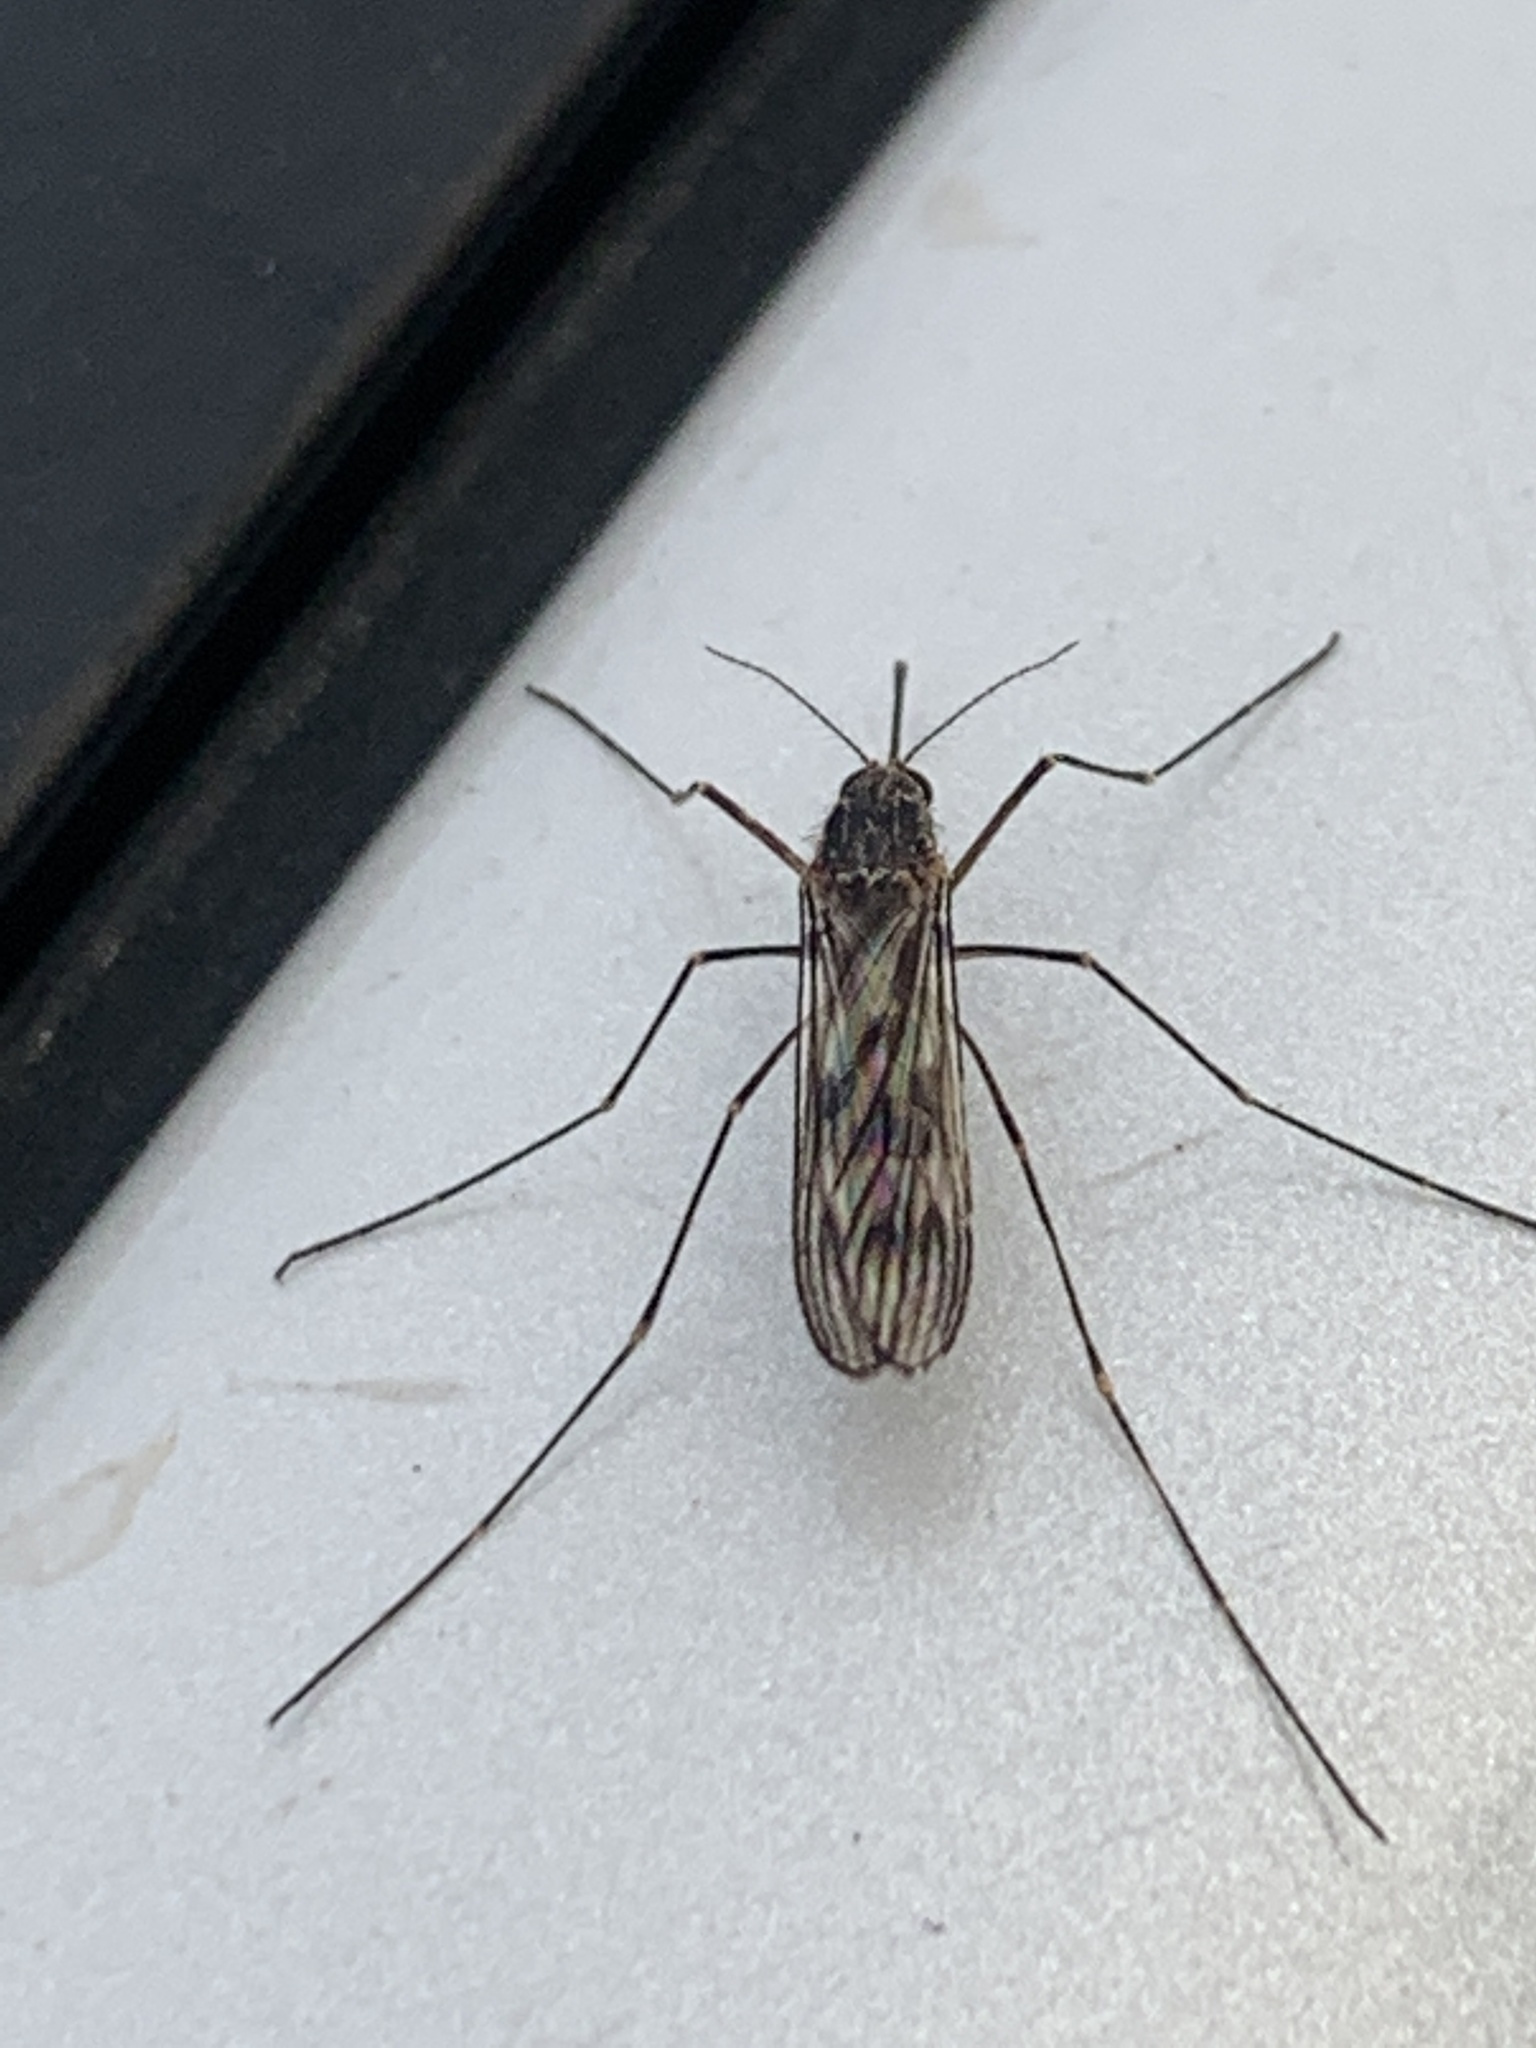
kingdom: Animalia
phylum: Arthropoda
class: Insecta
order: Diptera
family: Culicidae
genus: Culiseta
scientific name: Culiseta incidens
